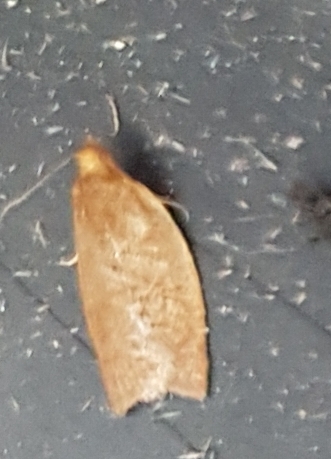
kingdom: Animalia
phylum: Arthropoda
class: Insecta
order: Lepidoptera
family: Tortricidae
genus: Clepsis
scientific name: Clepsis consimilana
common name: Privet tortrix
